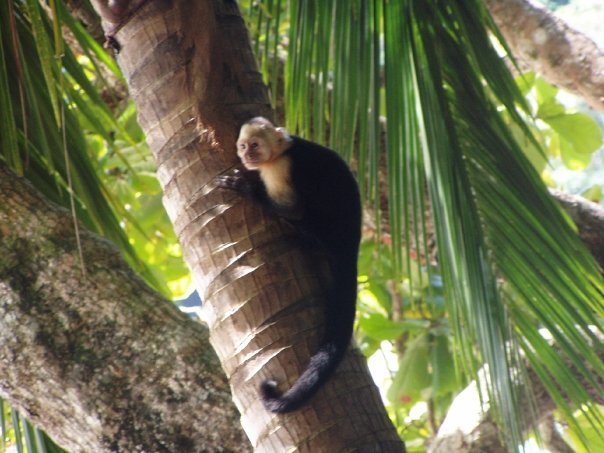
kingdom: Animalia
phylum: Chordata
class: Mammalia
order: Primates
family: Cebidae
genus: Cebus
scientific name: Cebus imitator
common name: Panamanian white-faced capuchin
